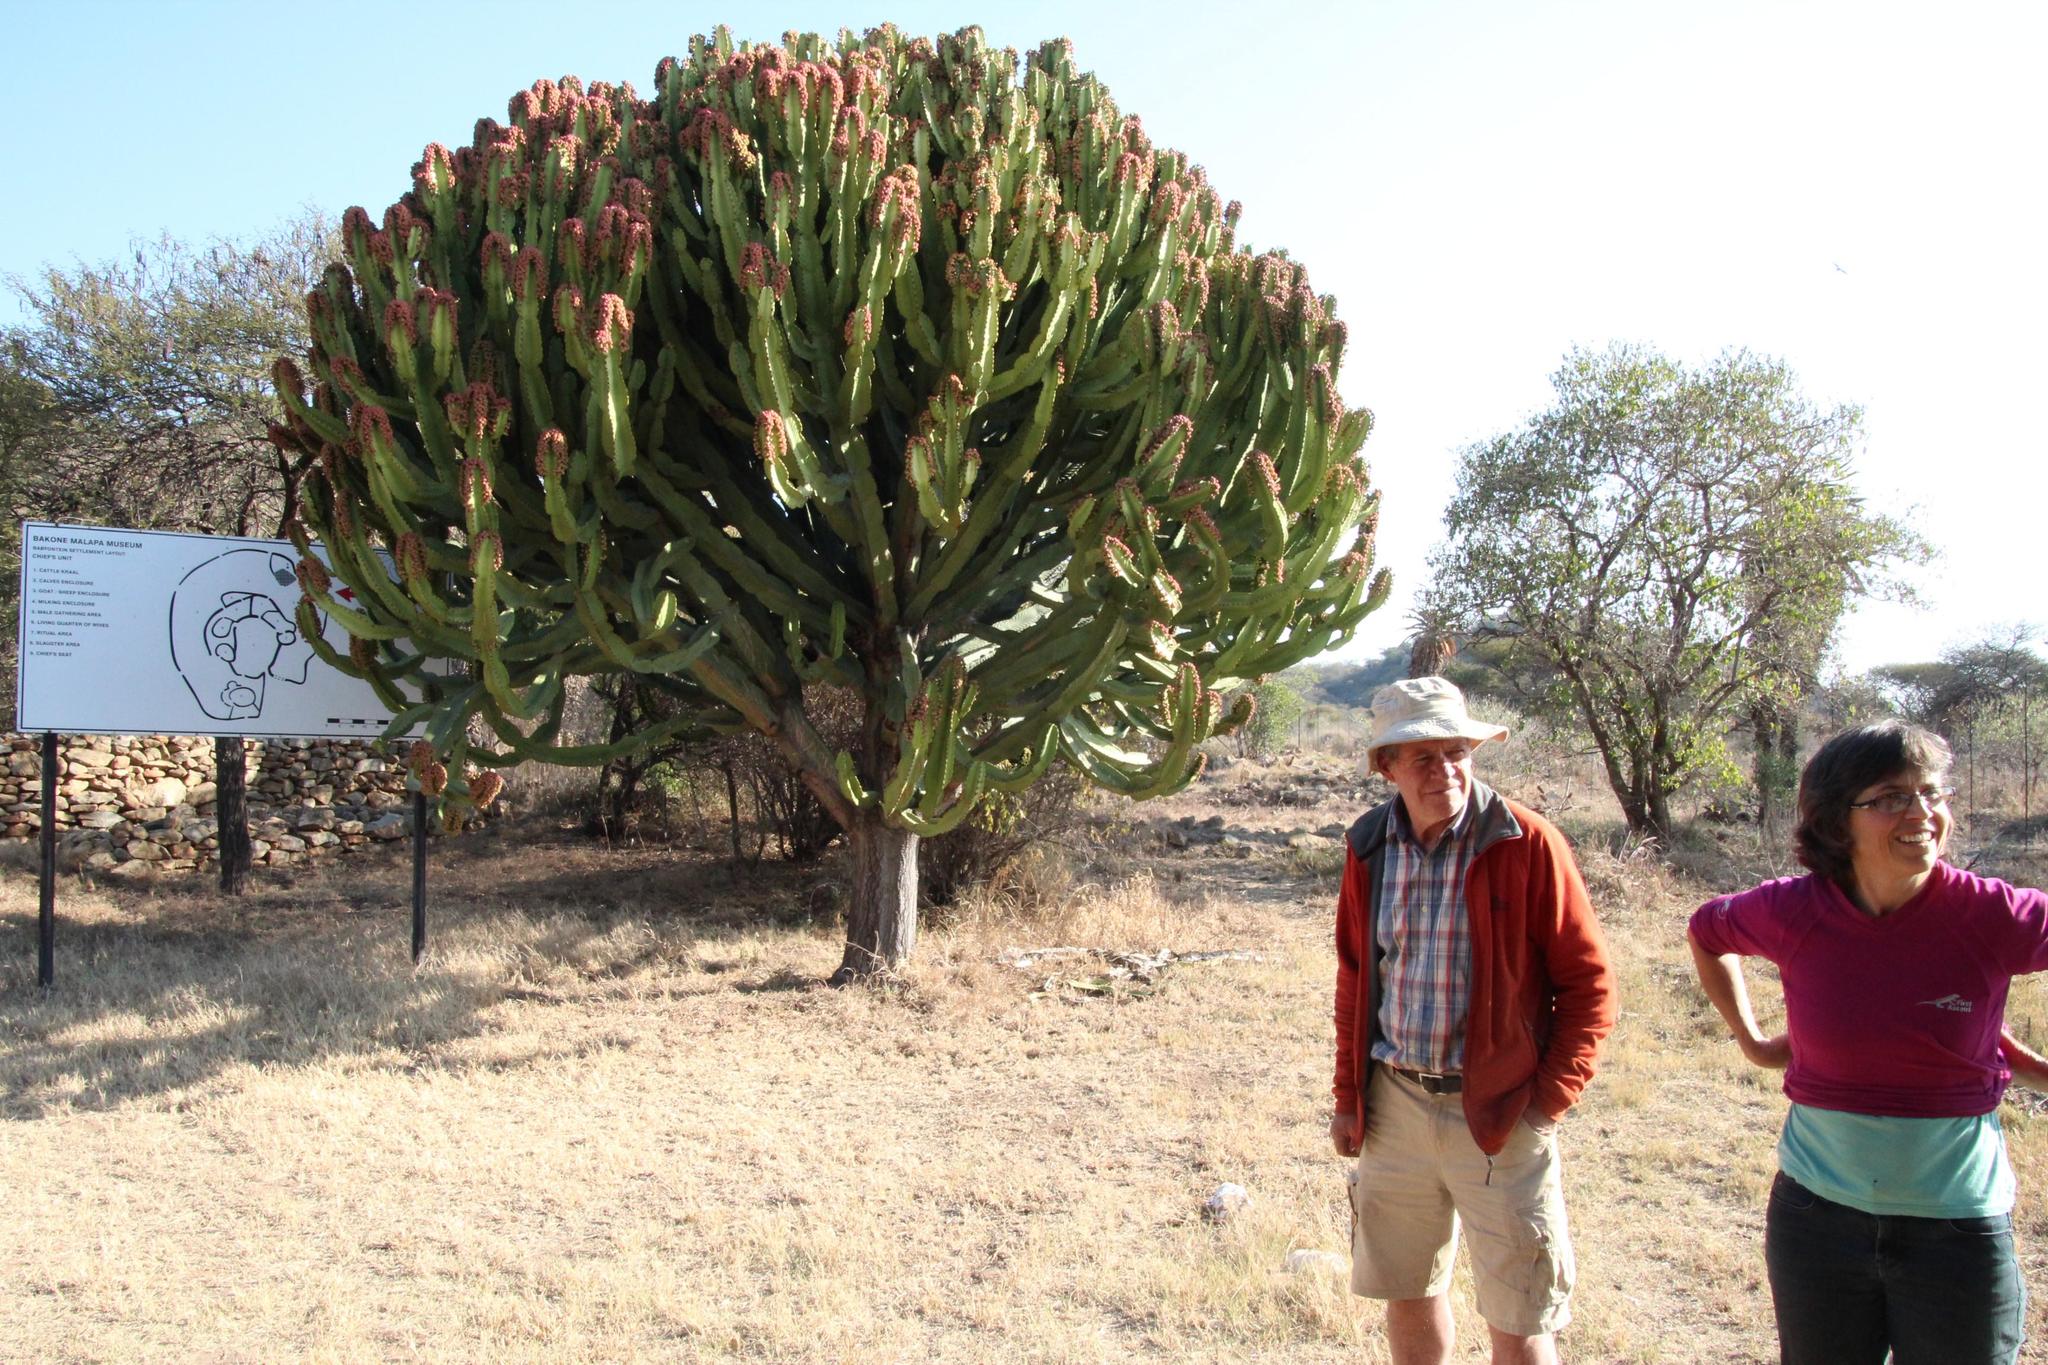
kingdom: Plantae
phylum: Tracheophyta
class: Magnoliopsida
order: Malpighiales
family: Euphorbiaceae
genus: Euphorbia
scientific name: Euphorbia ingens
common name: Cactus spurge
